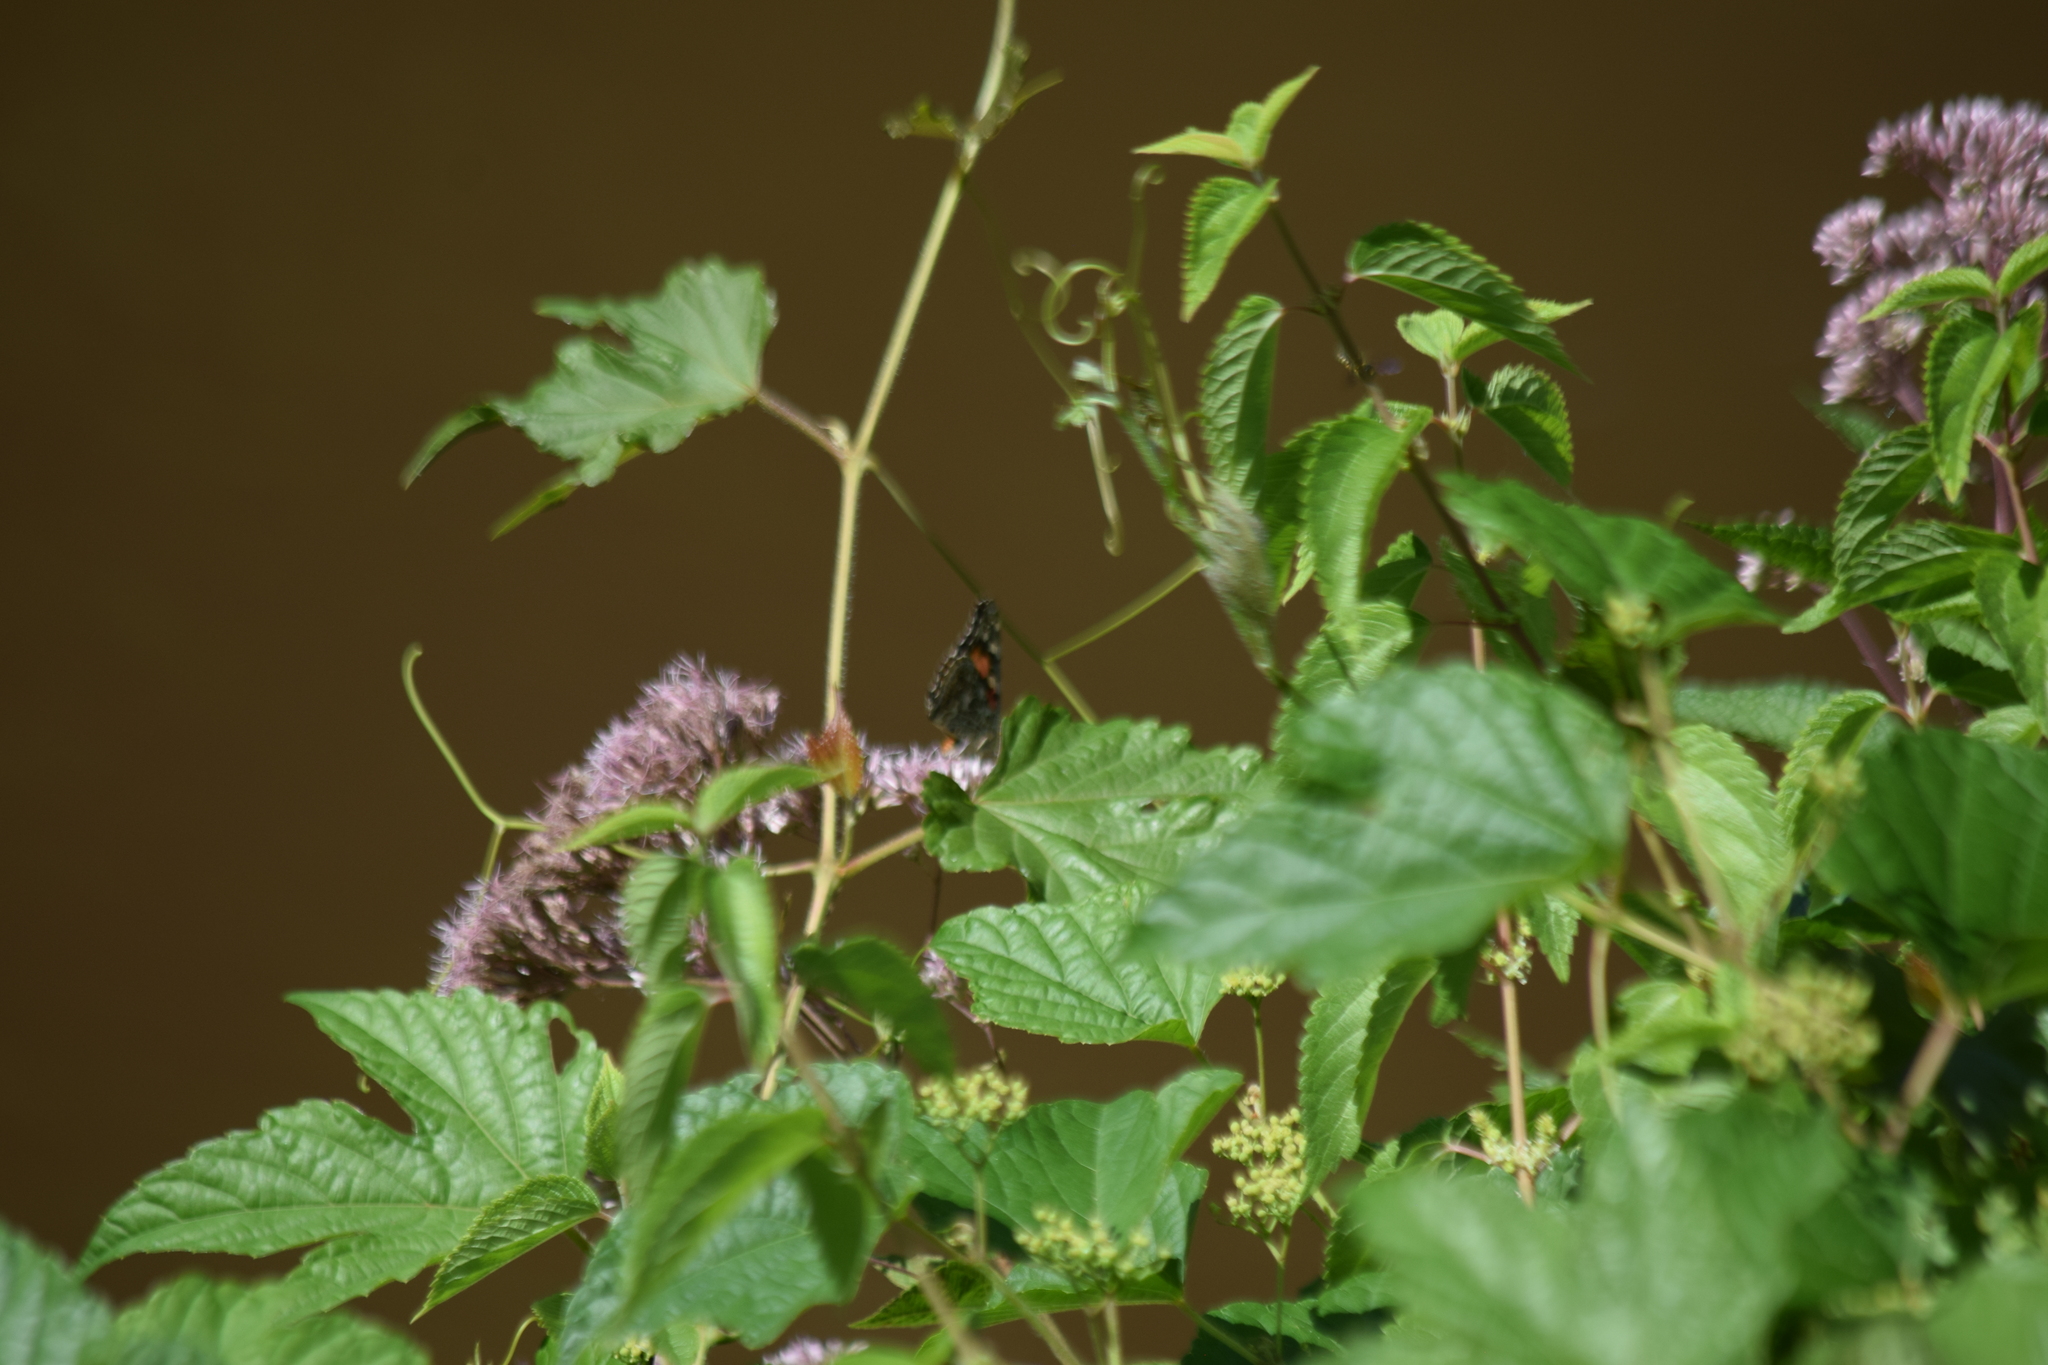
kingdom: Animalia
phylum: Arthropoda
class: Insecta
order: Lepidoptera
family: Nymphalidae
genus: Vanessa
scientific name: Vanessa cardui
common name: Painted lady
